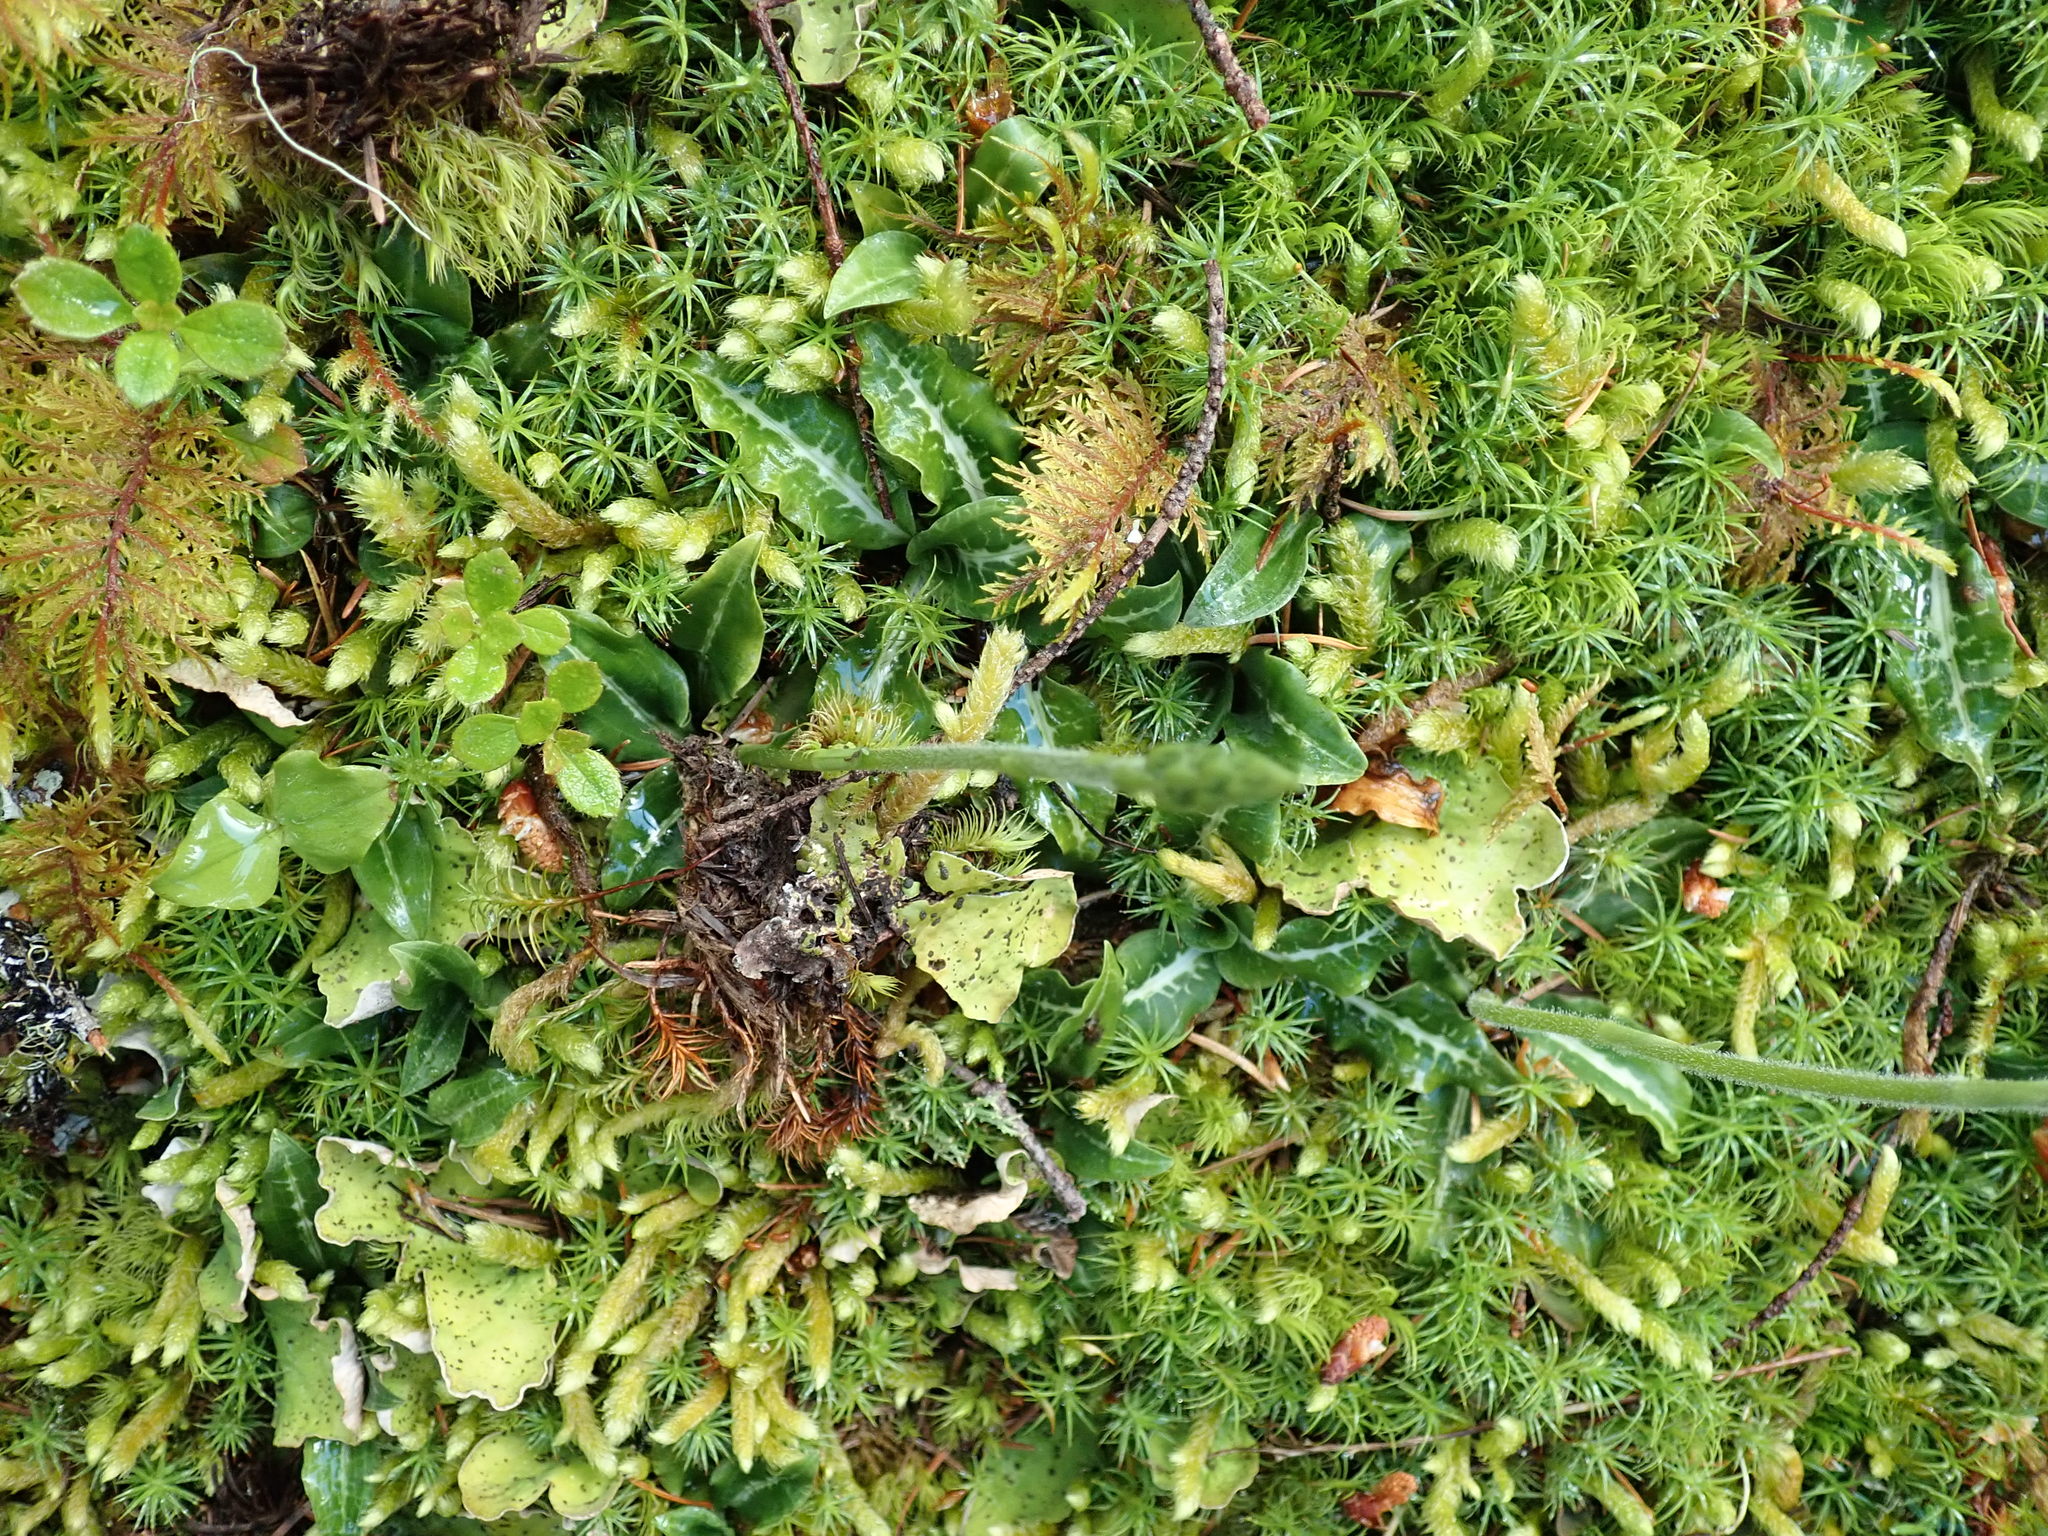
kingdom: Plantae
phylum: Tracheophyta
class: Liliopsida
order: Asparagales
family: Orchidaceae
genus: Goodyera
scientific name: Goodyera oblongifolia
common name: Giant rattlesnake-plantain
